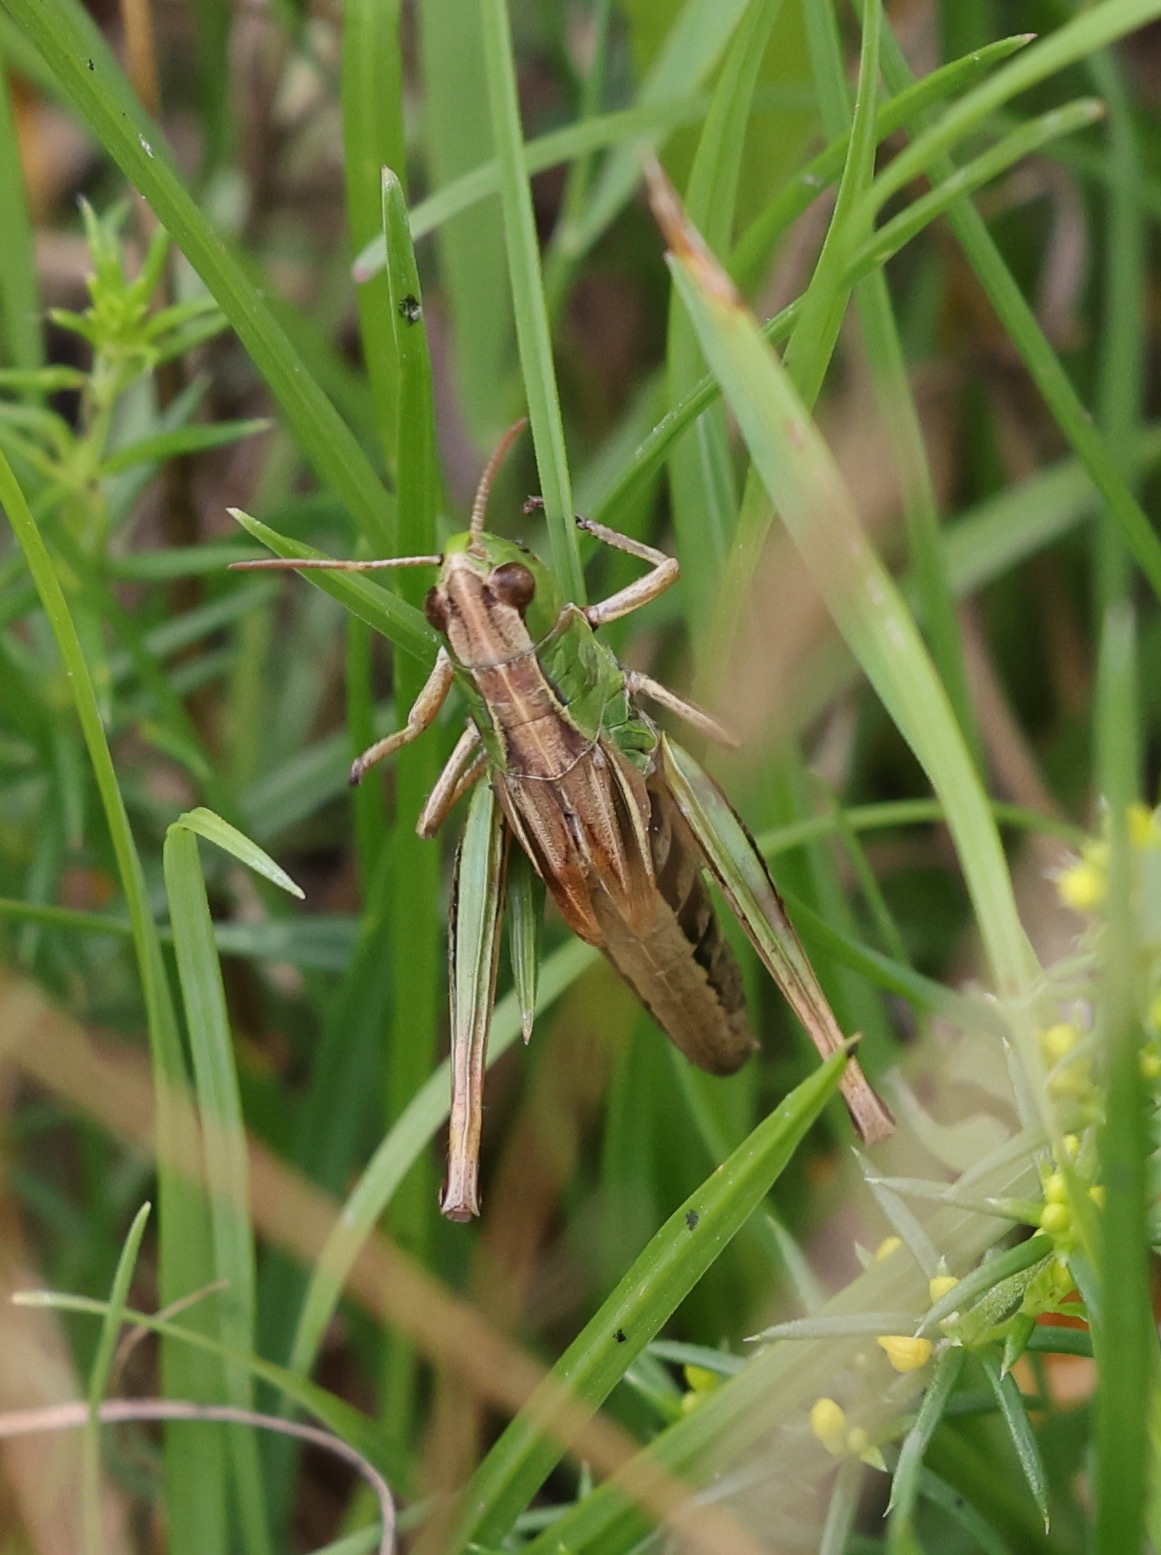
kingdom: Animalia
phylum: Arthropoda
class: Insecta
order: Orthoptera
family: Acrididae
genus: Pseudochorthippus
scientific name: Pseudochorthippus parallelus
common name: Meadow grasshopper
